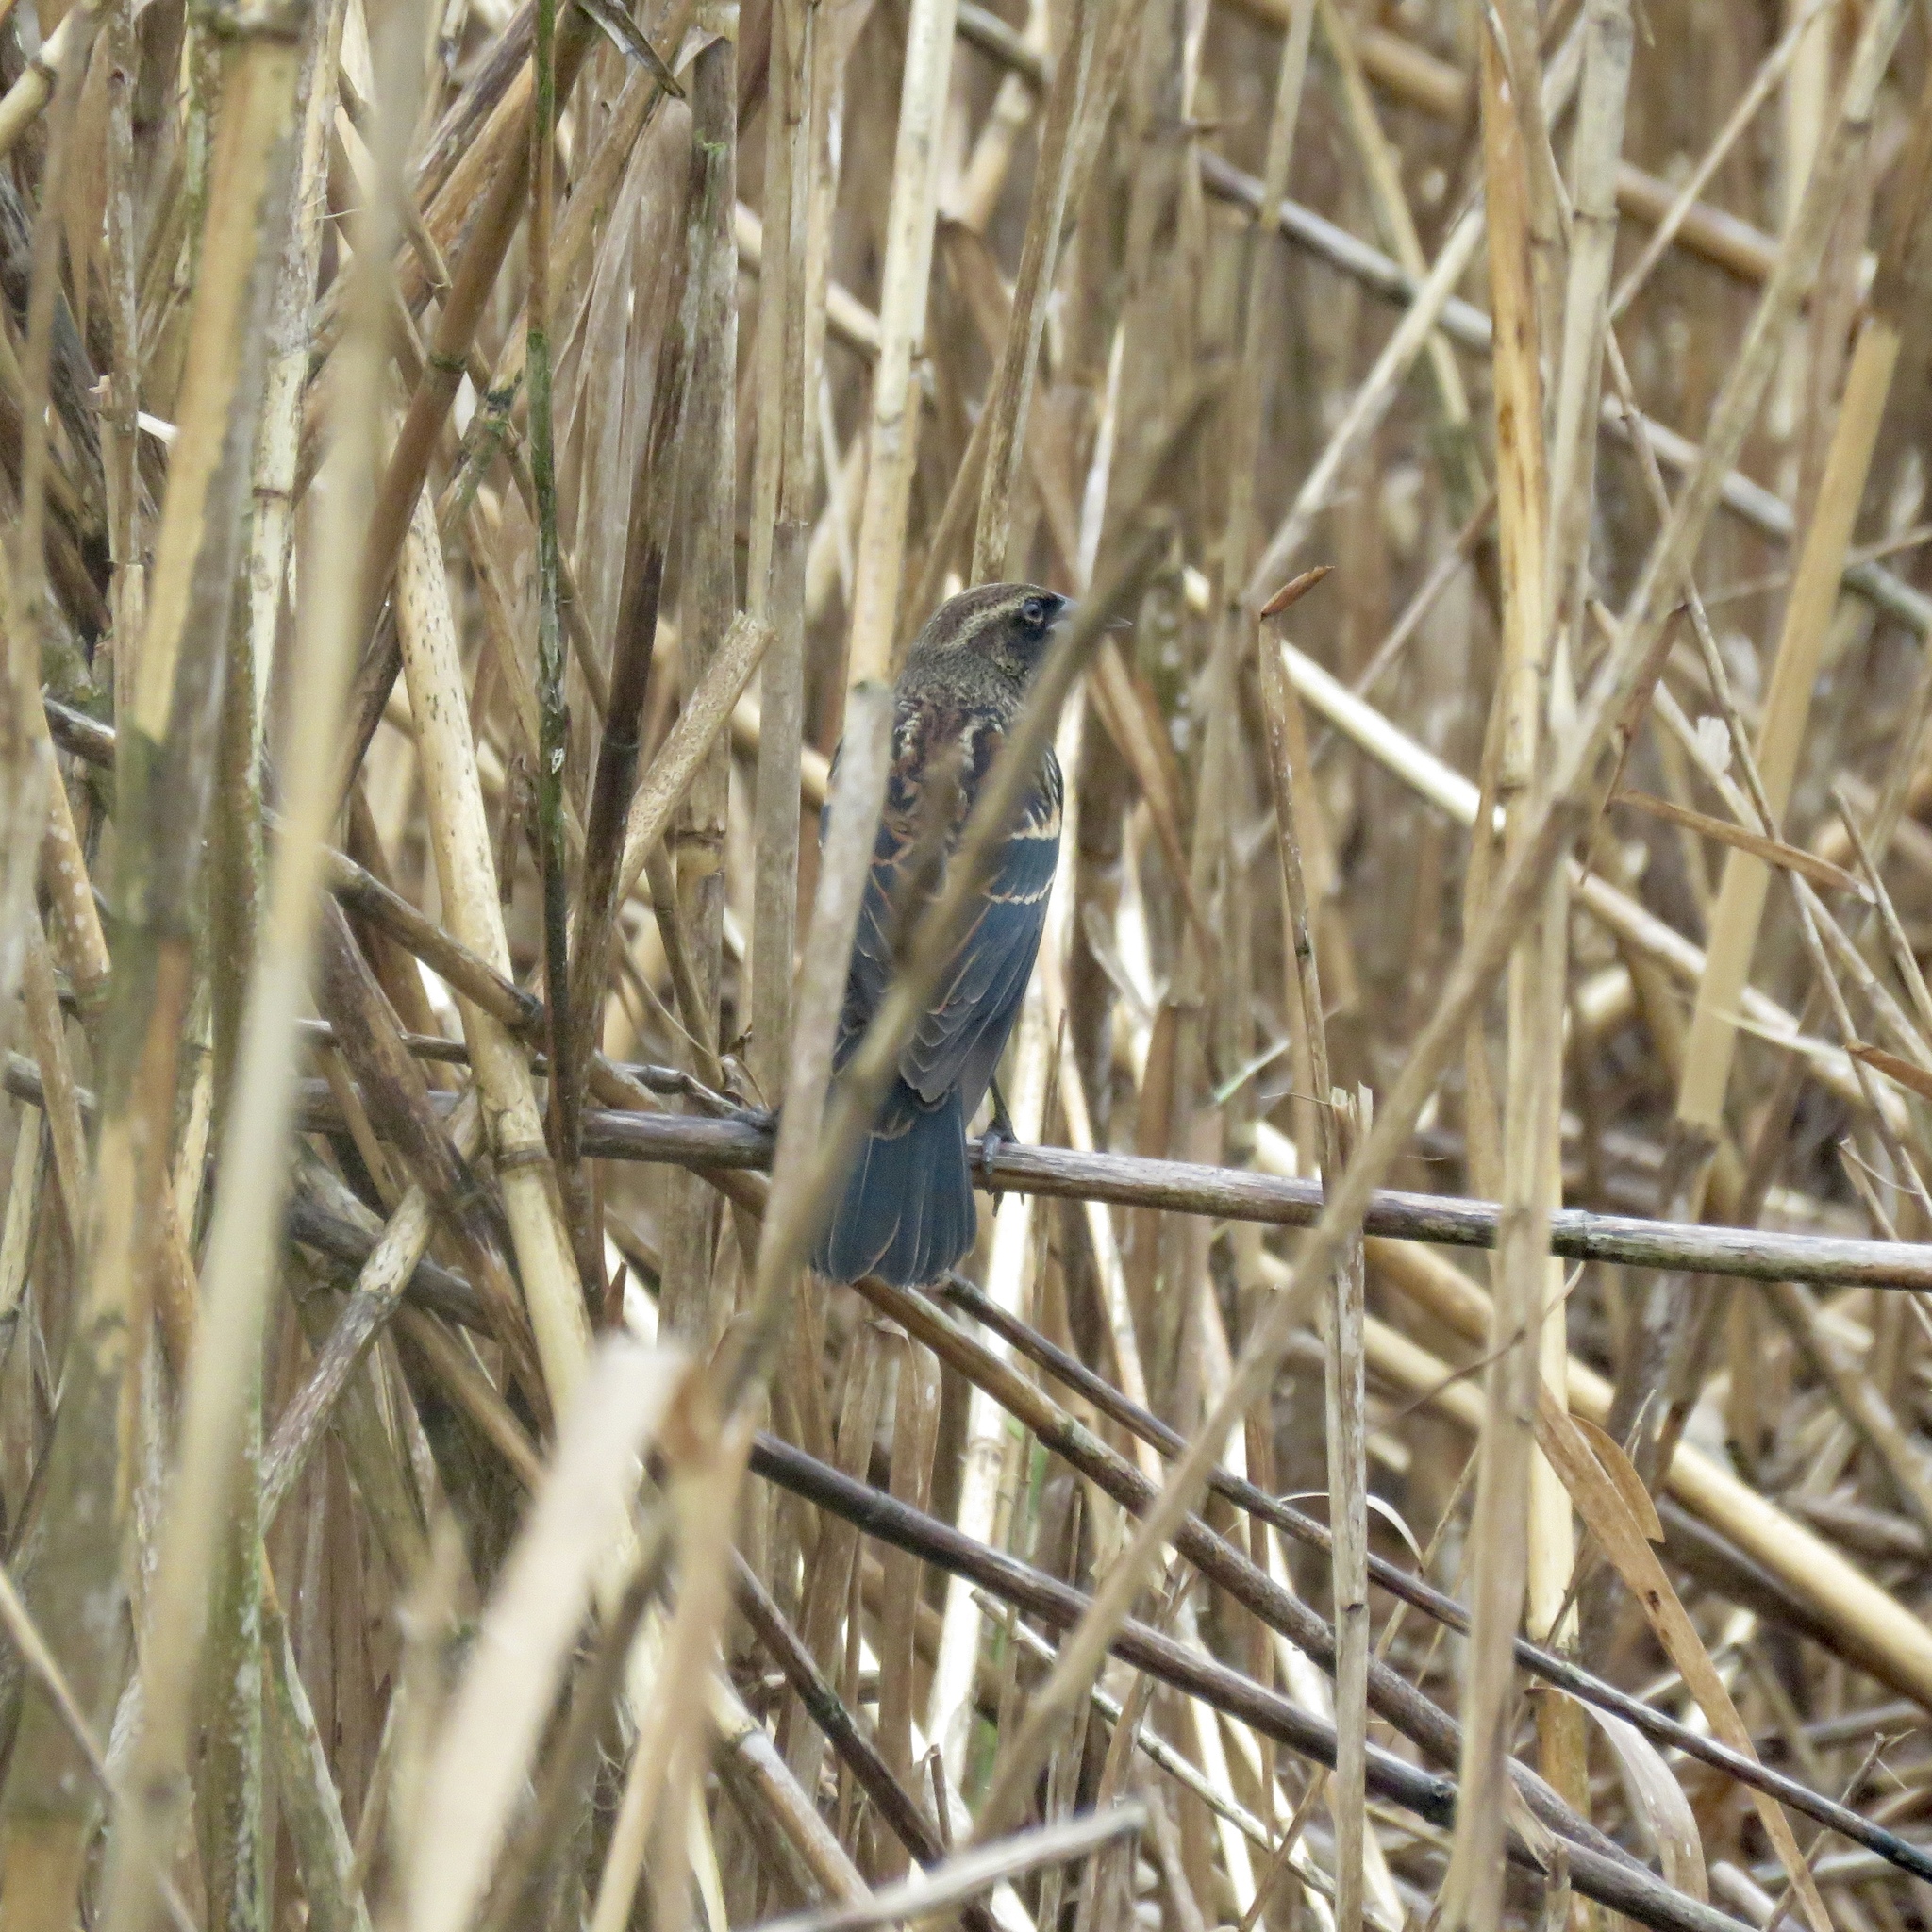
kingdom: Animalia
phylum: Chordata
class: Aves
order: Passeriformes
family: Icteridae
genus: Agelaius
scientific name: Agelaius phoeniceus
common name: Red-winged blackbird
